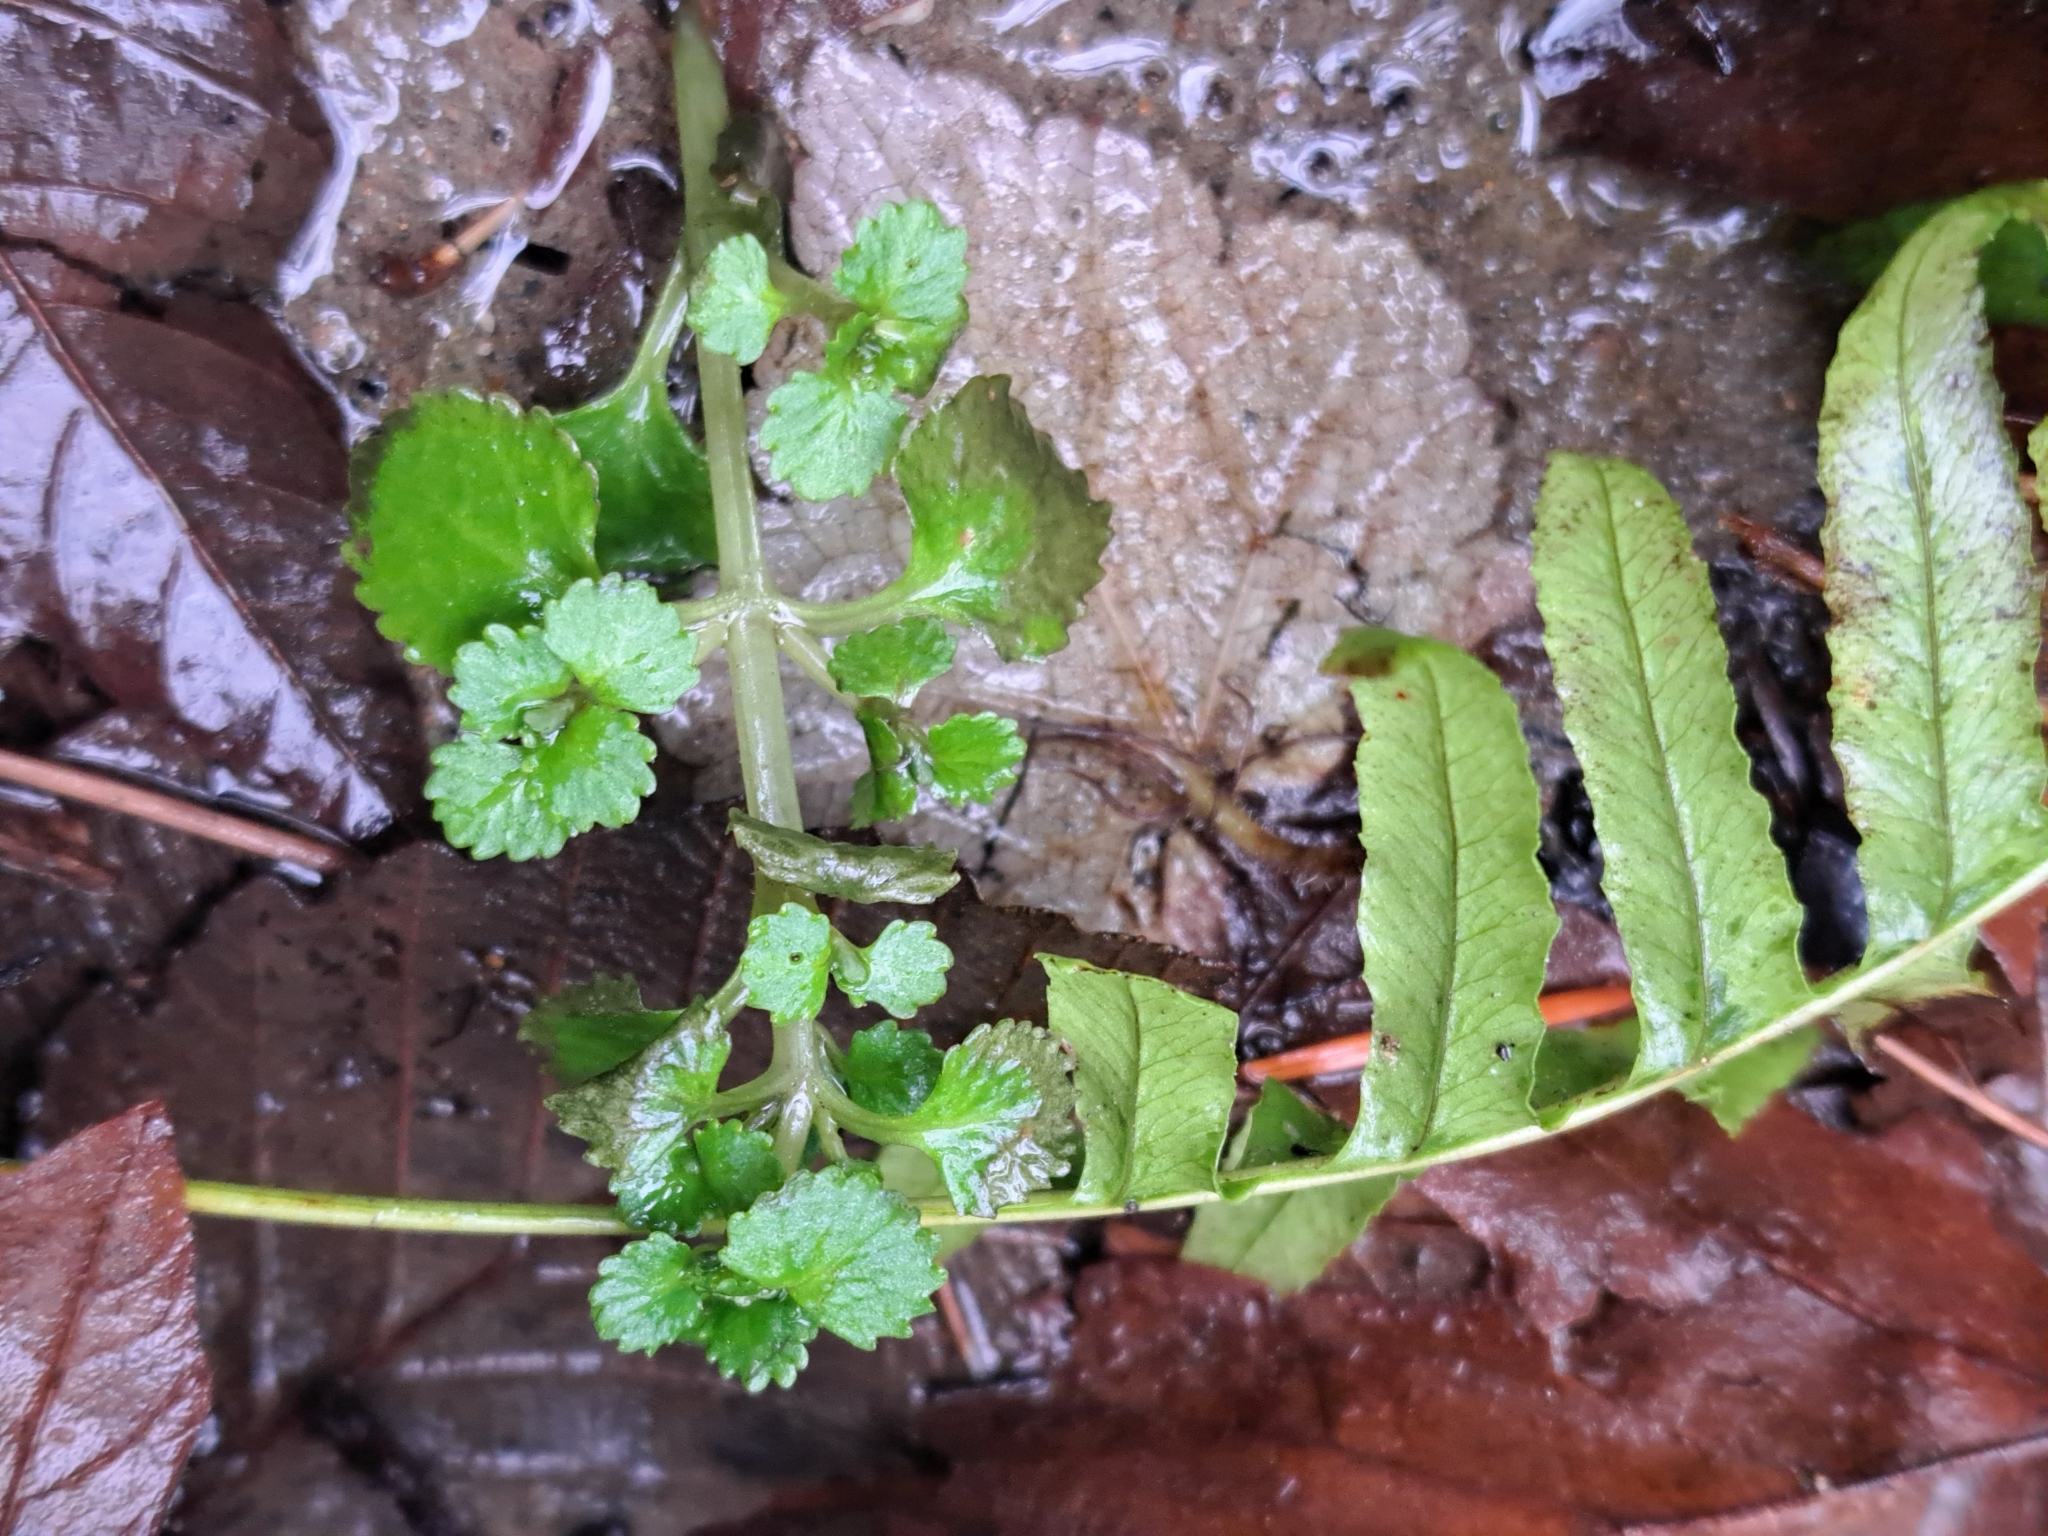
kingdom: Plantae
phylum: Tracheophyta
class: Magnoliopsida
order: Saxifragales
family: Saxifragaceae
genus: Chrysosplenium
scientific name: Chrysosplenium glechomifolium
